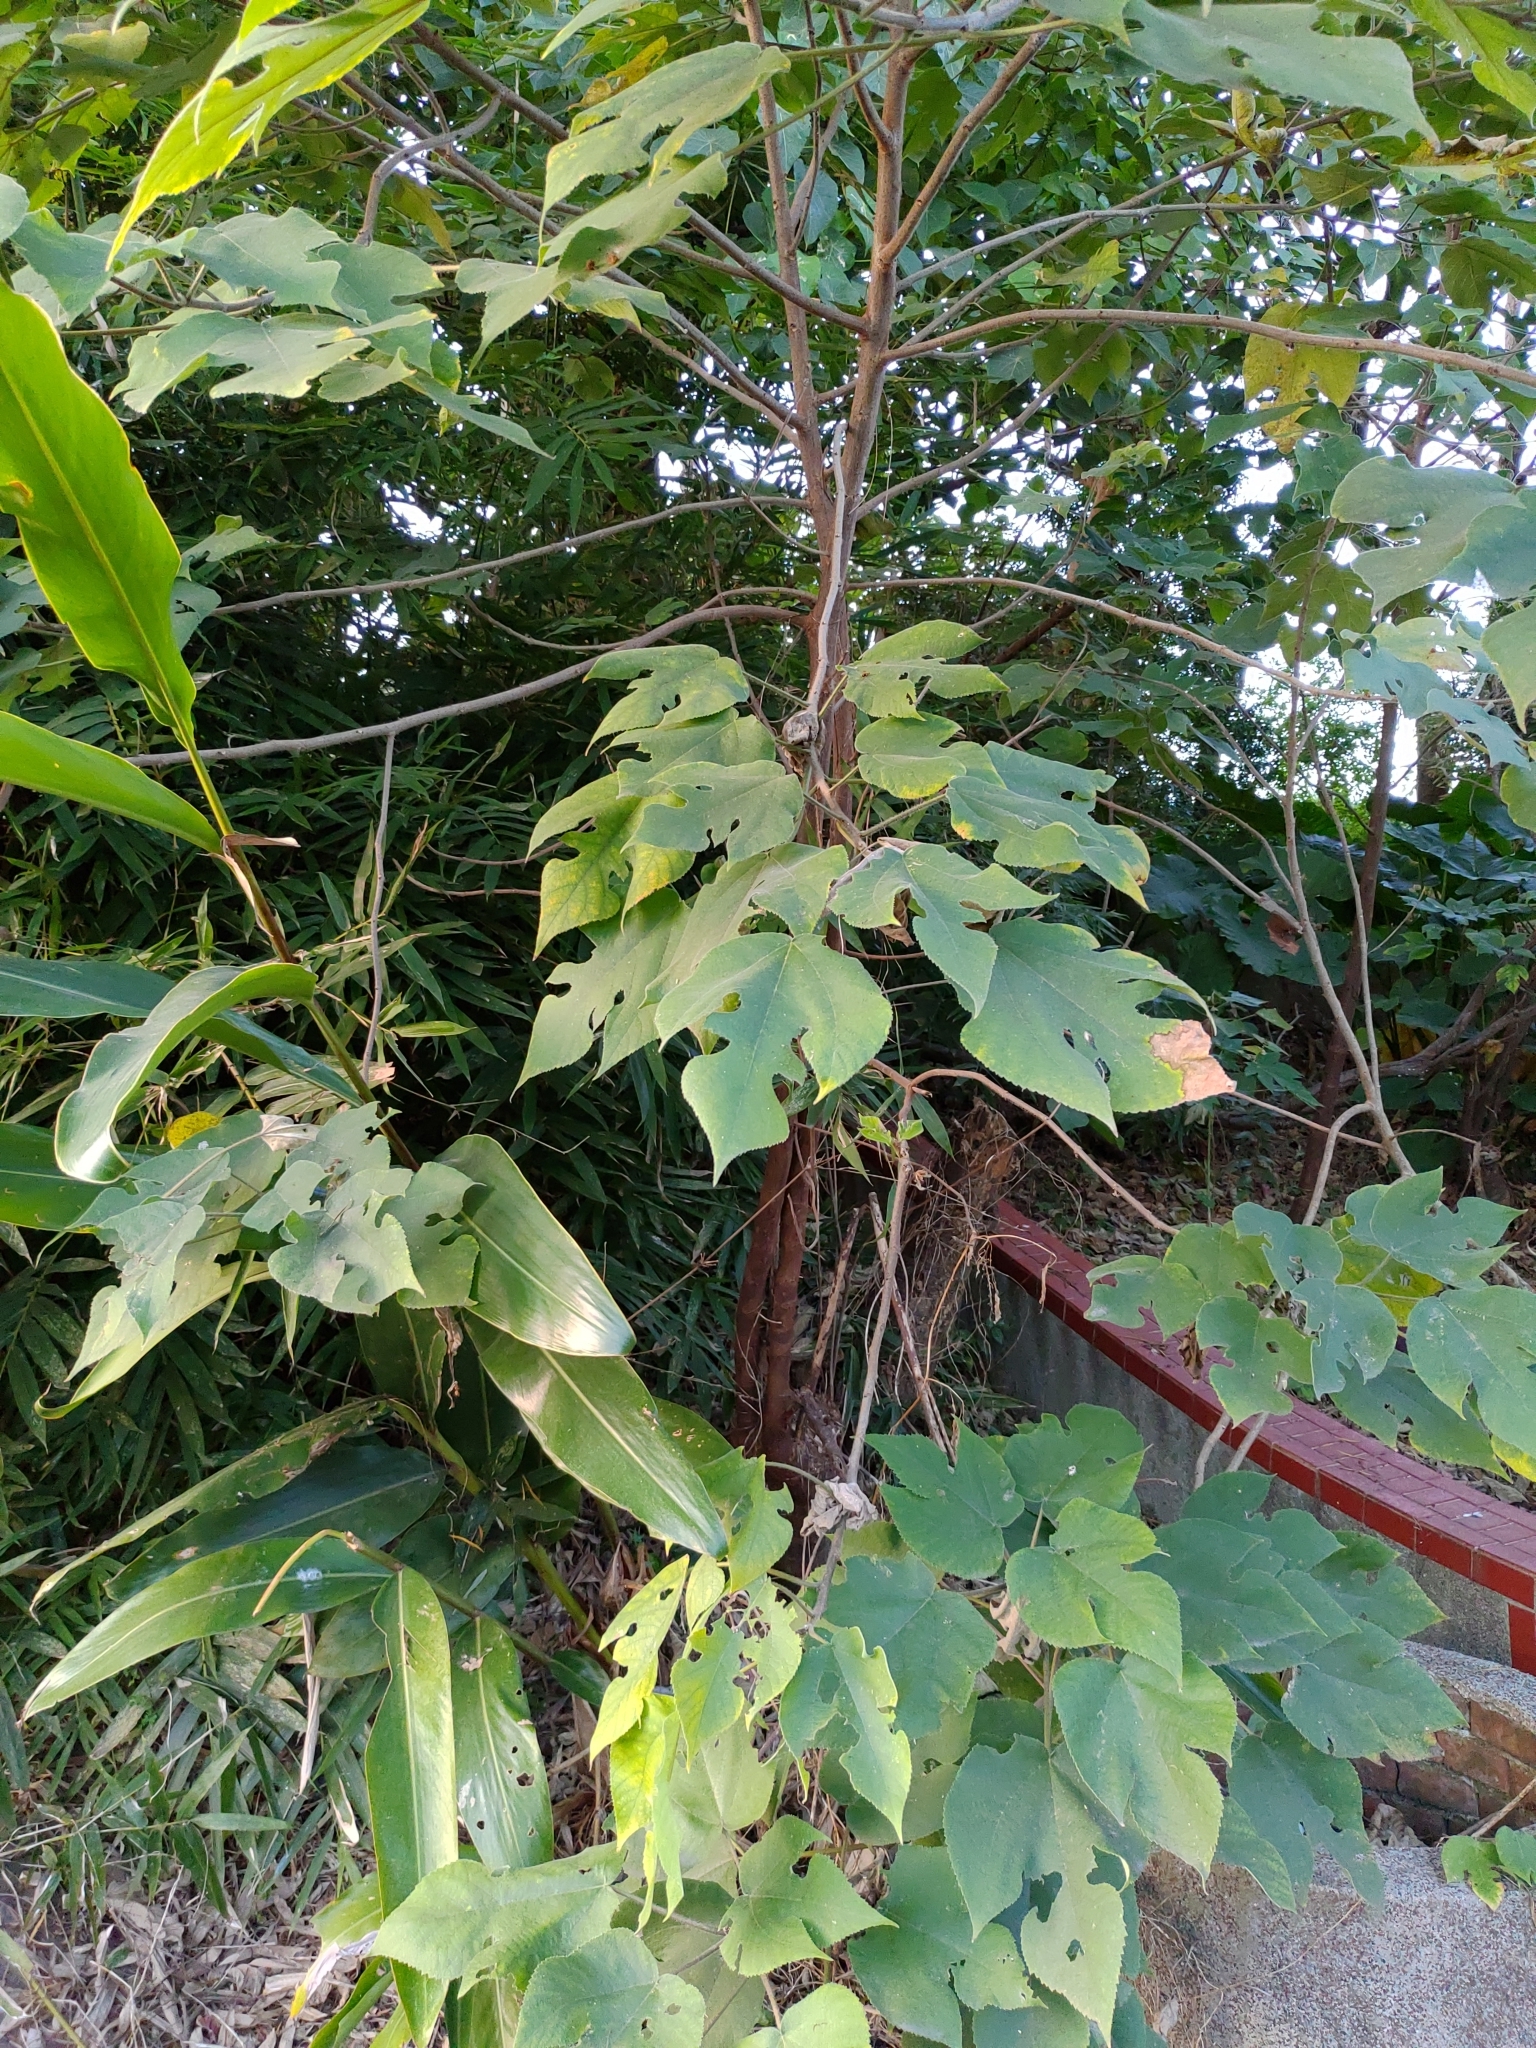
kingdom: Plantae
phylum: Tracheophyta
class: Magnoliopsida
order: Rosales
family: Moraceae
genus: Broussonetia
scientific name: Broussonetia papyrifera
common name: Paper mulberry
